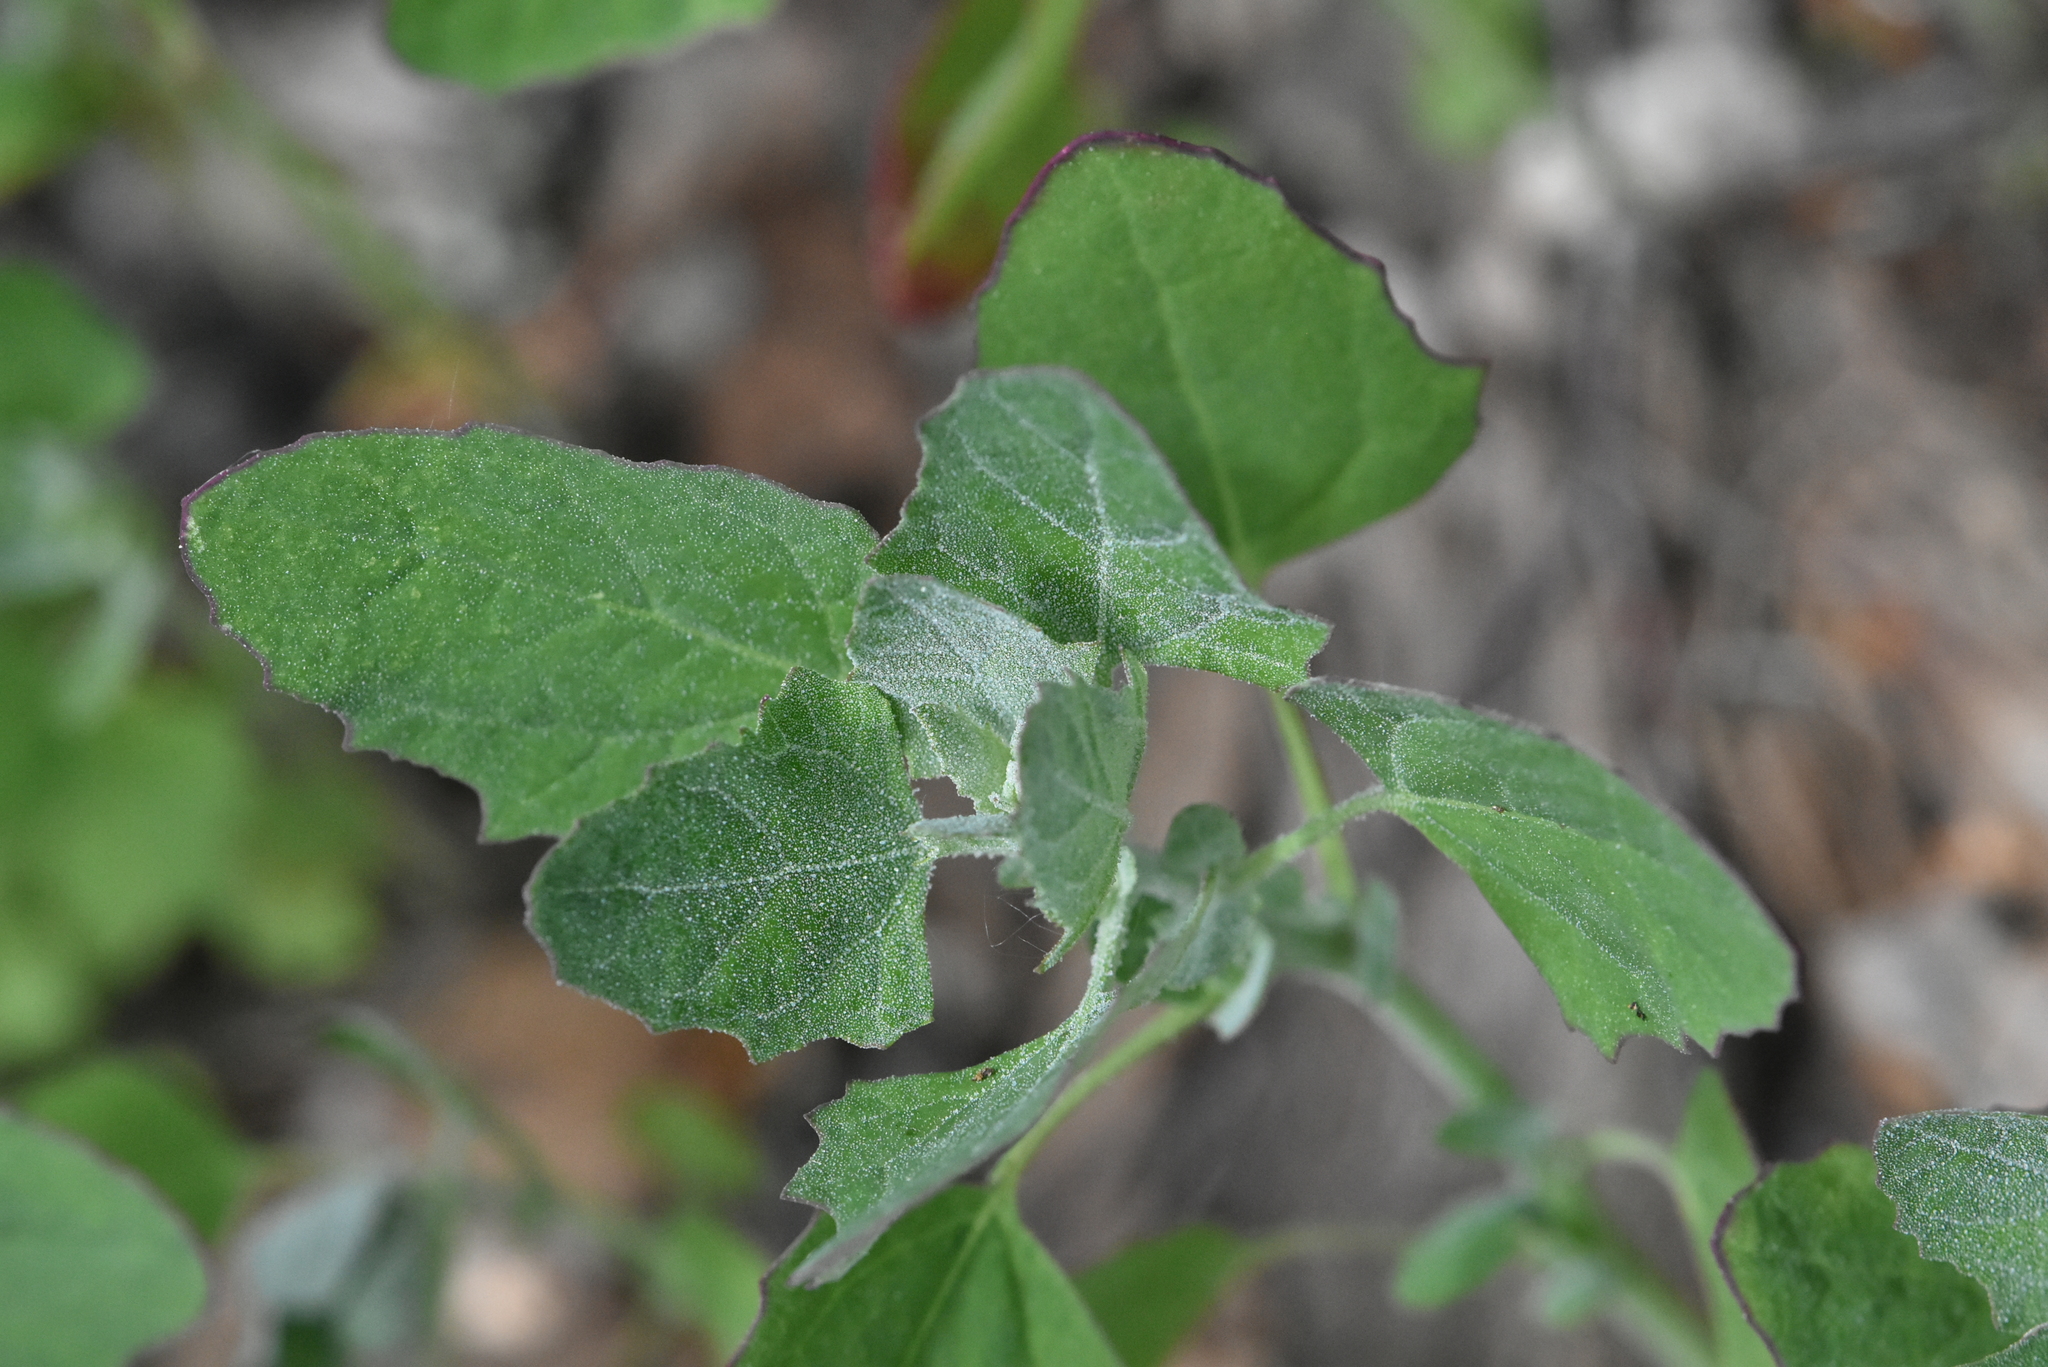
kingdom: Plantae
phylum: Tracheophyta
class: Magnoliopsida
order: Caryophyllales
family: Amaranthaceae
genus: Chenopodium
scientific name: Chenopodium album
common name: Fat-hen
